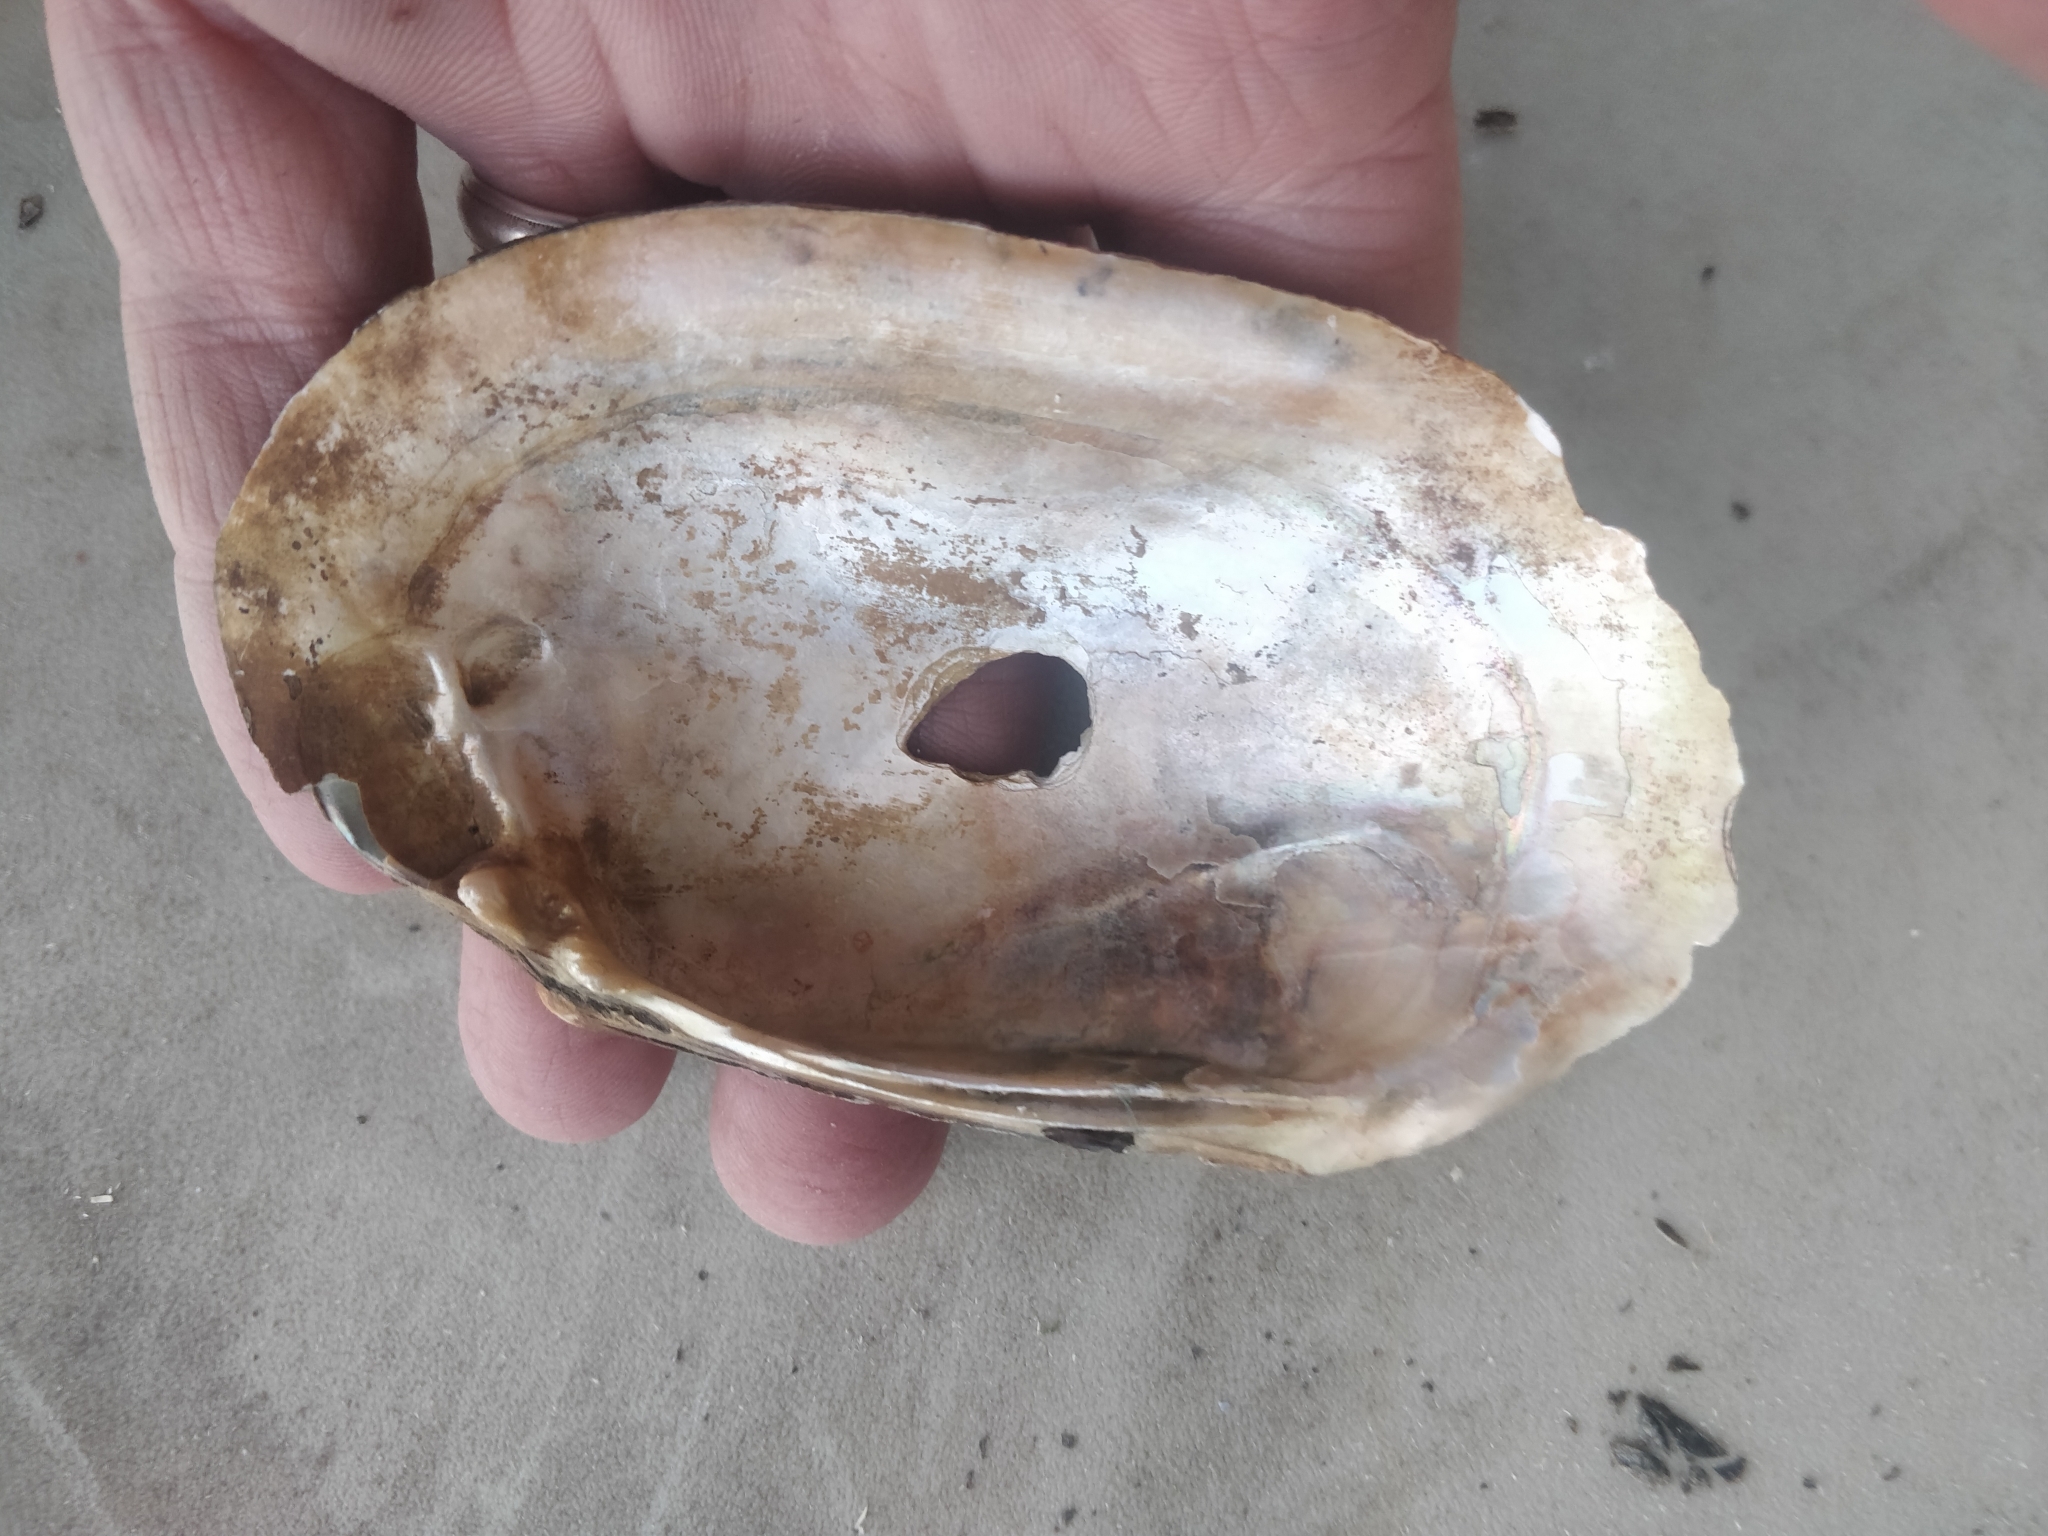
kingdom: Animalia
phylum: Mollusca
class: Bivalvia
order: Unionida
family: Unionidae
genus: Lampsilis
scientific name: Lampsilis siliquoidea
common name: Fatmucket
